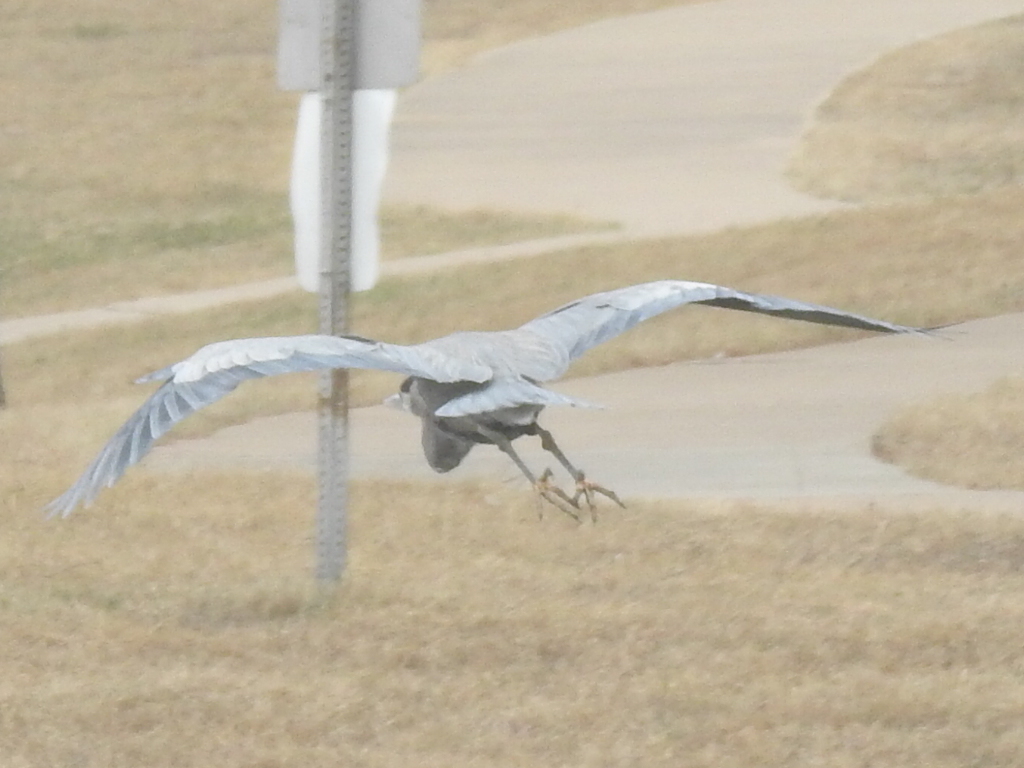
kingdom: Animalia
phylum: Chordata
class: Aves
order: Pelecaniformes
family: Ardeidae
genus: Ardea
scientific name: Ardea herodias
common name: Great blue heron
